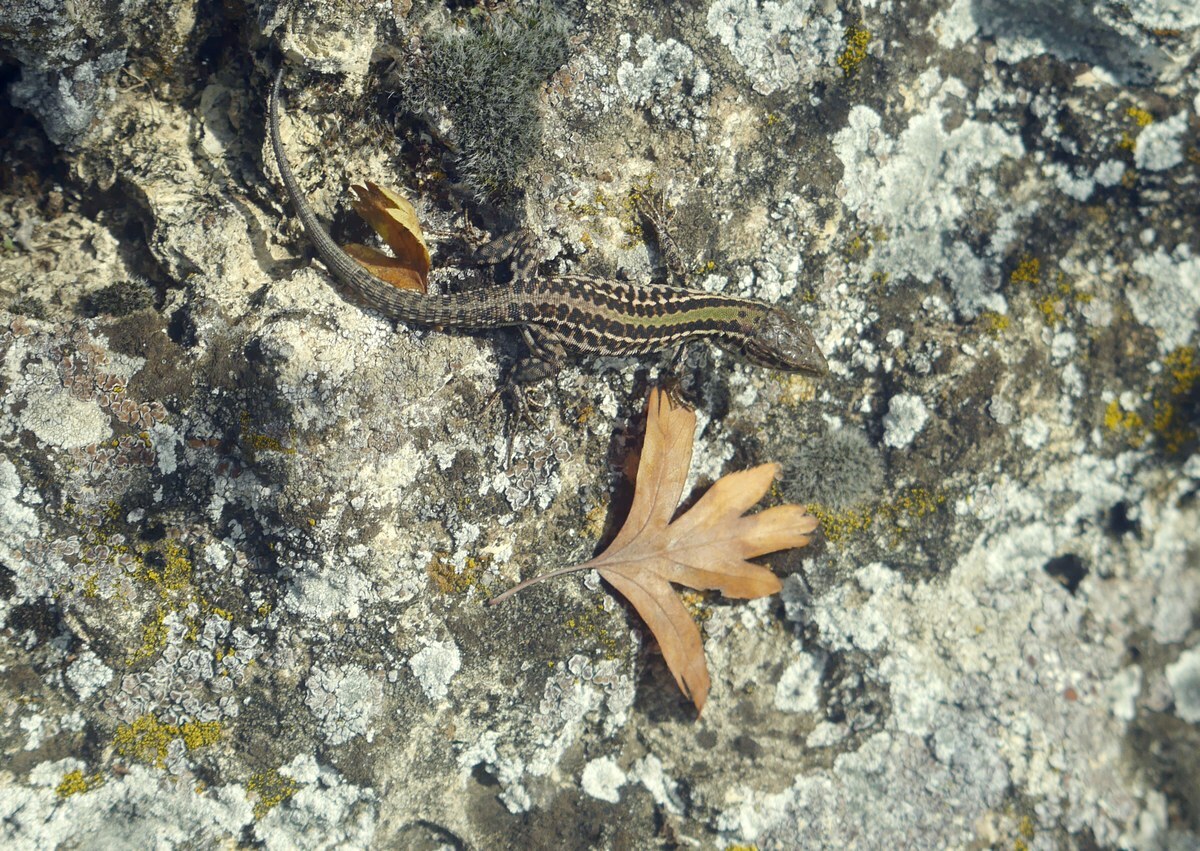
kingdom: Animalia
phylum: Chordata
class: Squamata
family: Lacertidae
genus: Podarcis
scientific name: Podarcis tauricus
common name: Balkan wall lizard
